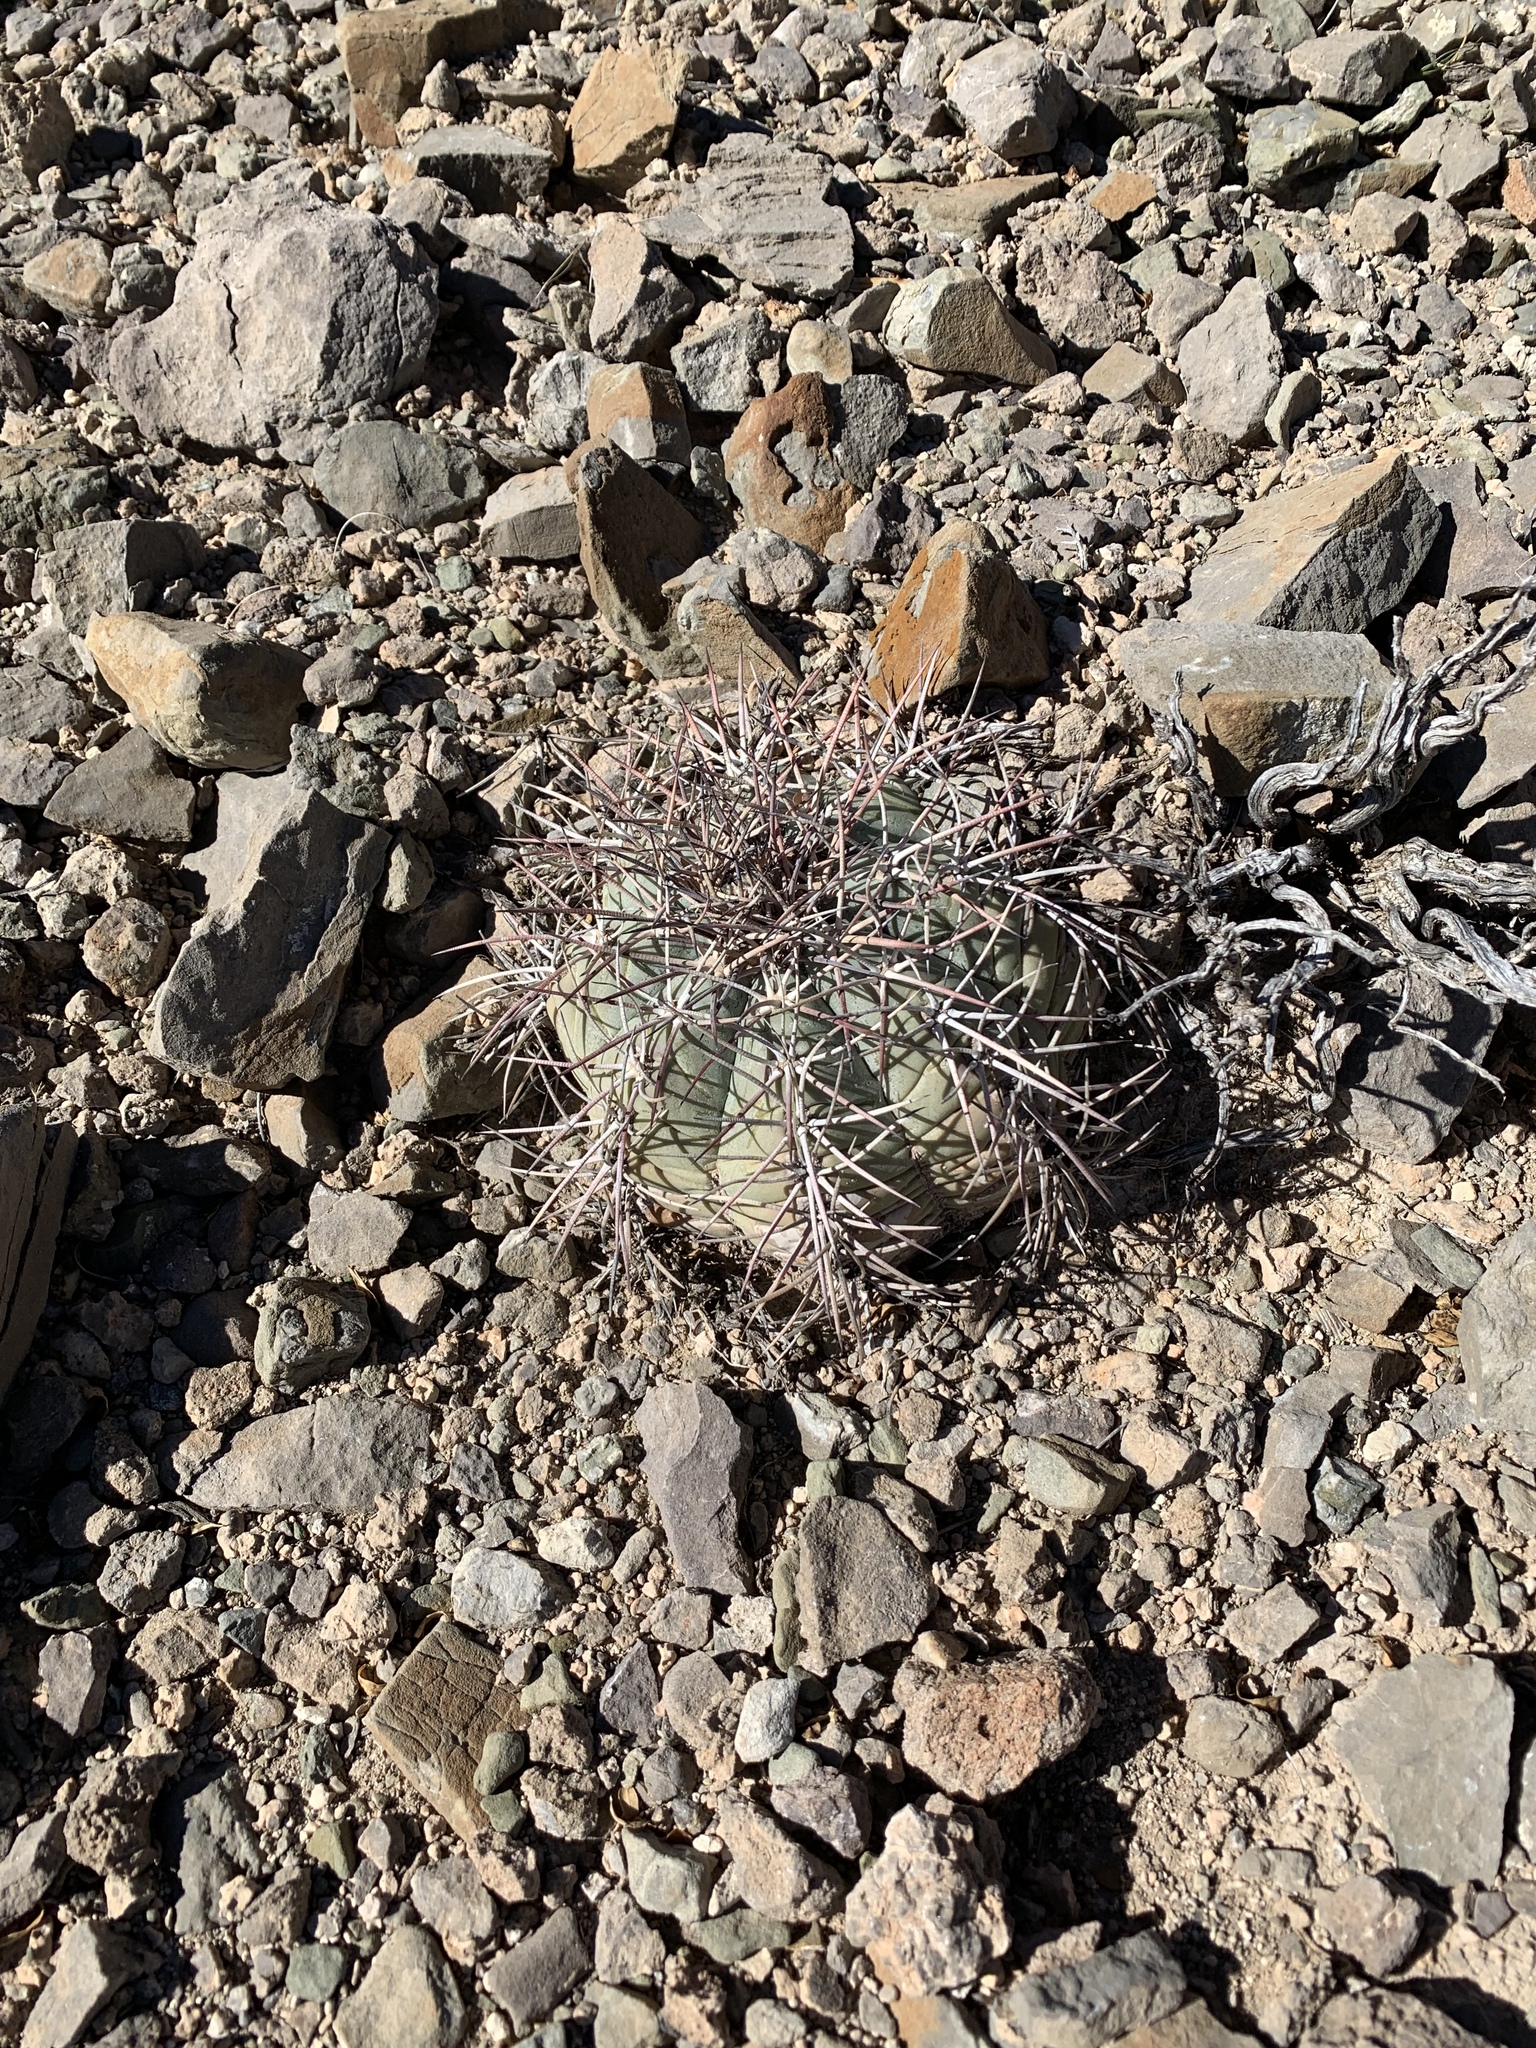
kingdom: Plantae
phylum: Tracheophyta
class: Magnoliopsida
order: Caryophyllales
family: Cactaceae
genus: Echinocactus
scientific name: Echinocactus horizonthalonius
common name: Devilshead
